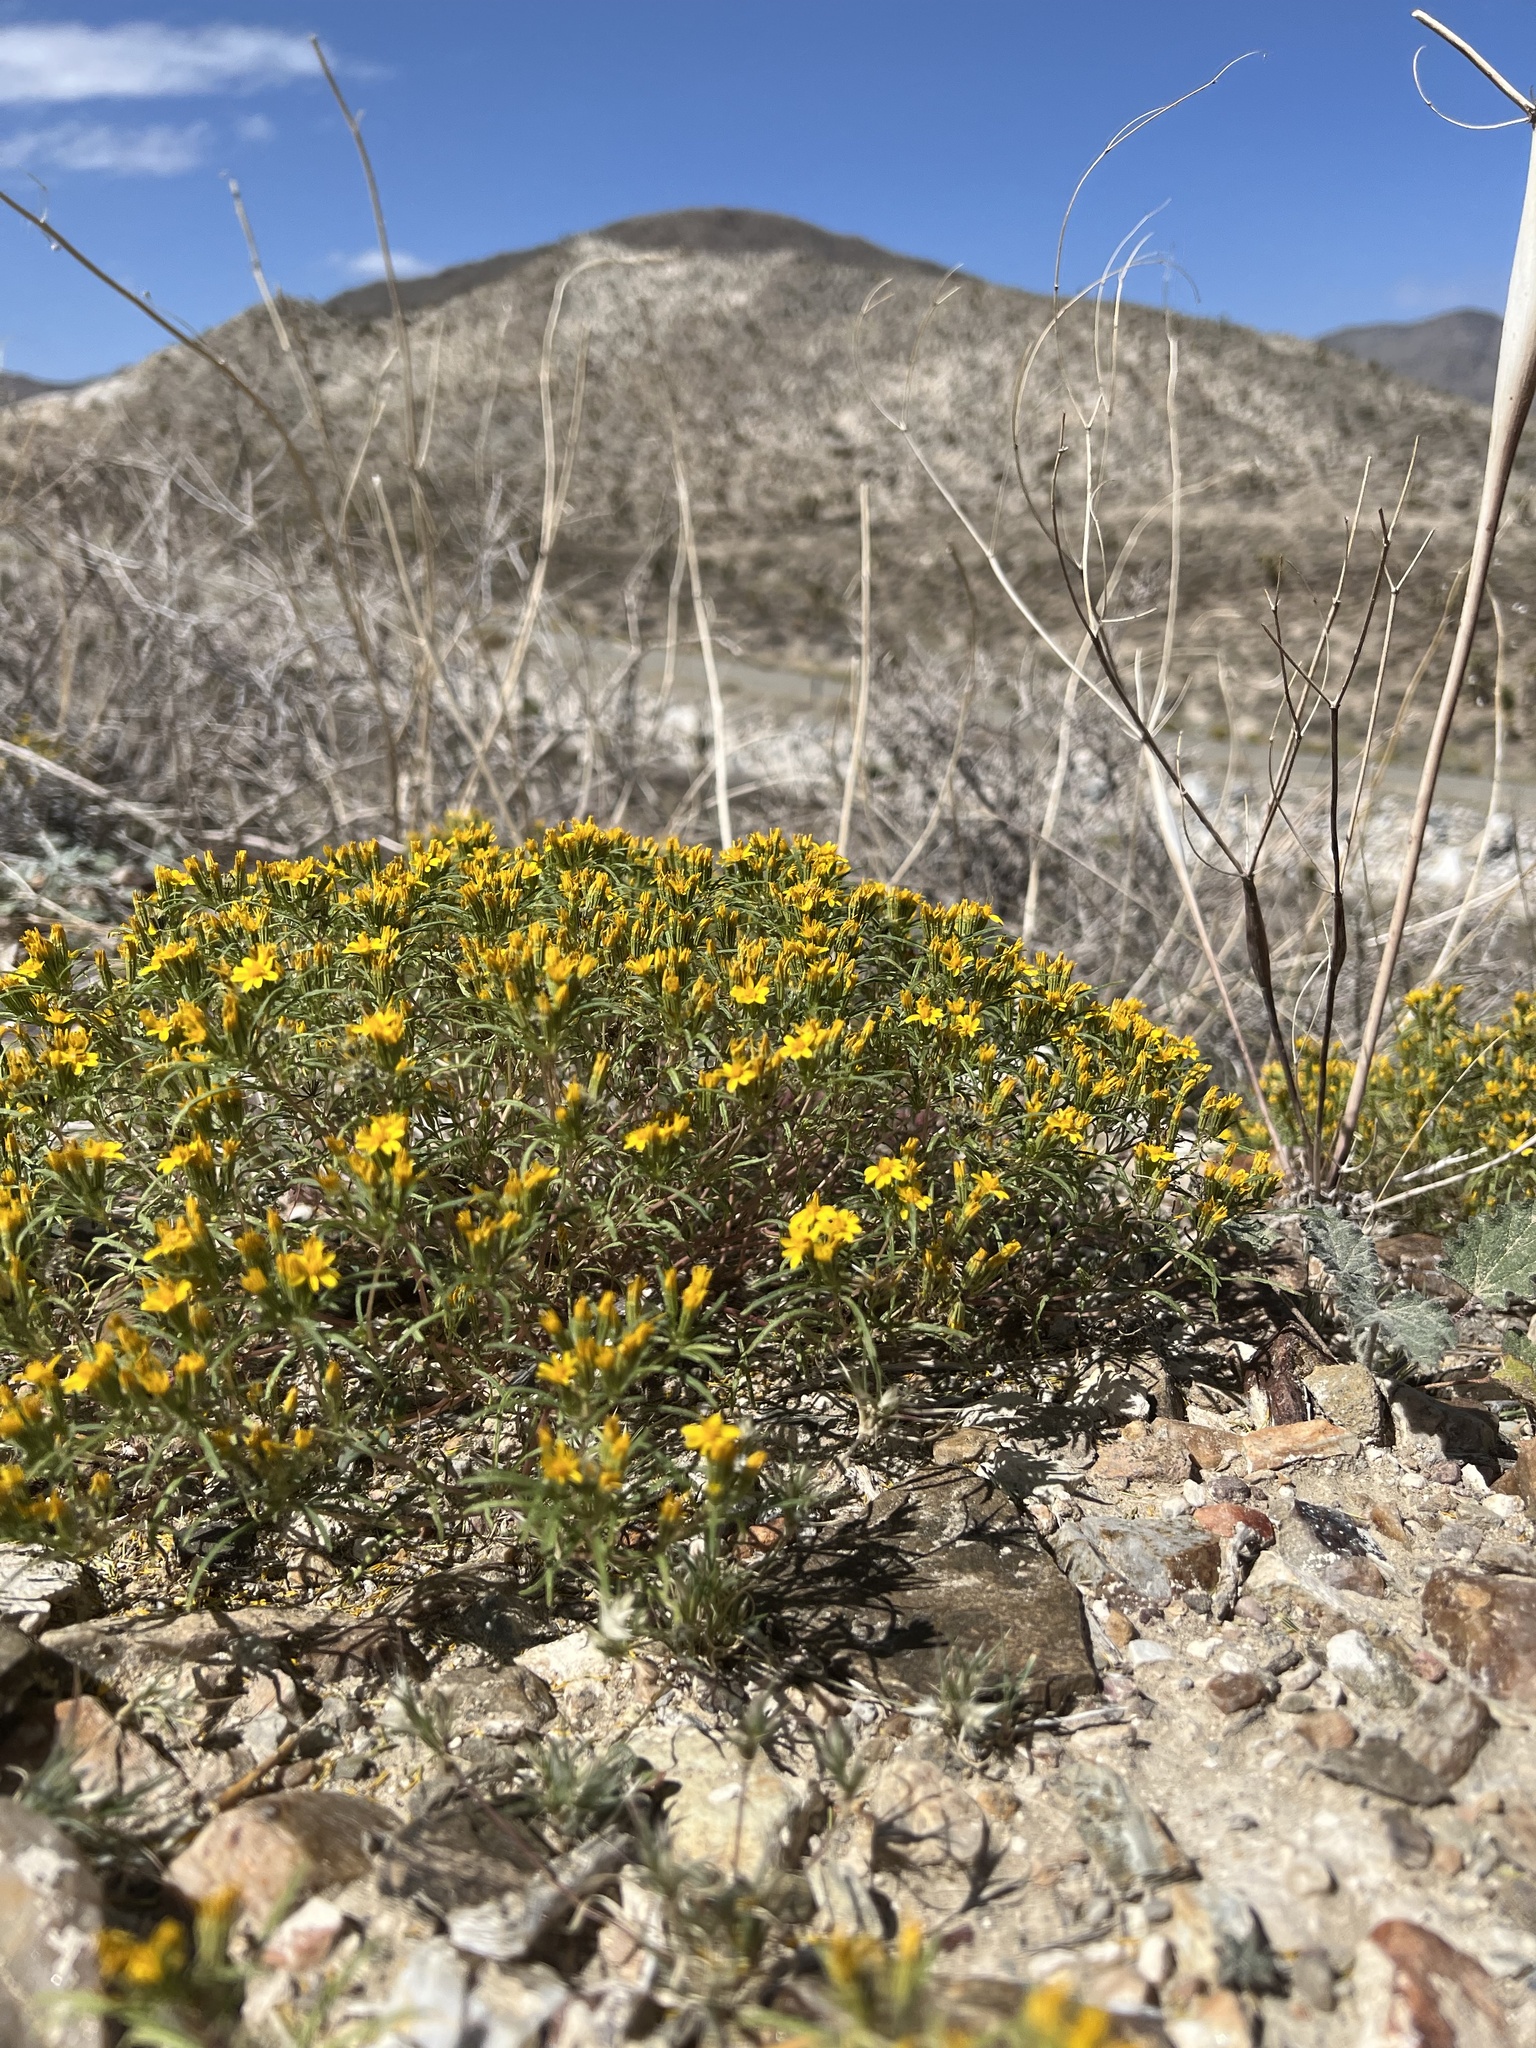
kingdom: Plantae
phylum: Tracheophyta
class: Magnoliopsida
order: Asterales
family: Asteraceae
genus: Pectis
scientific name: Pectis papposa
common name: Many-bristle chinchweed
